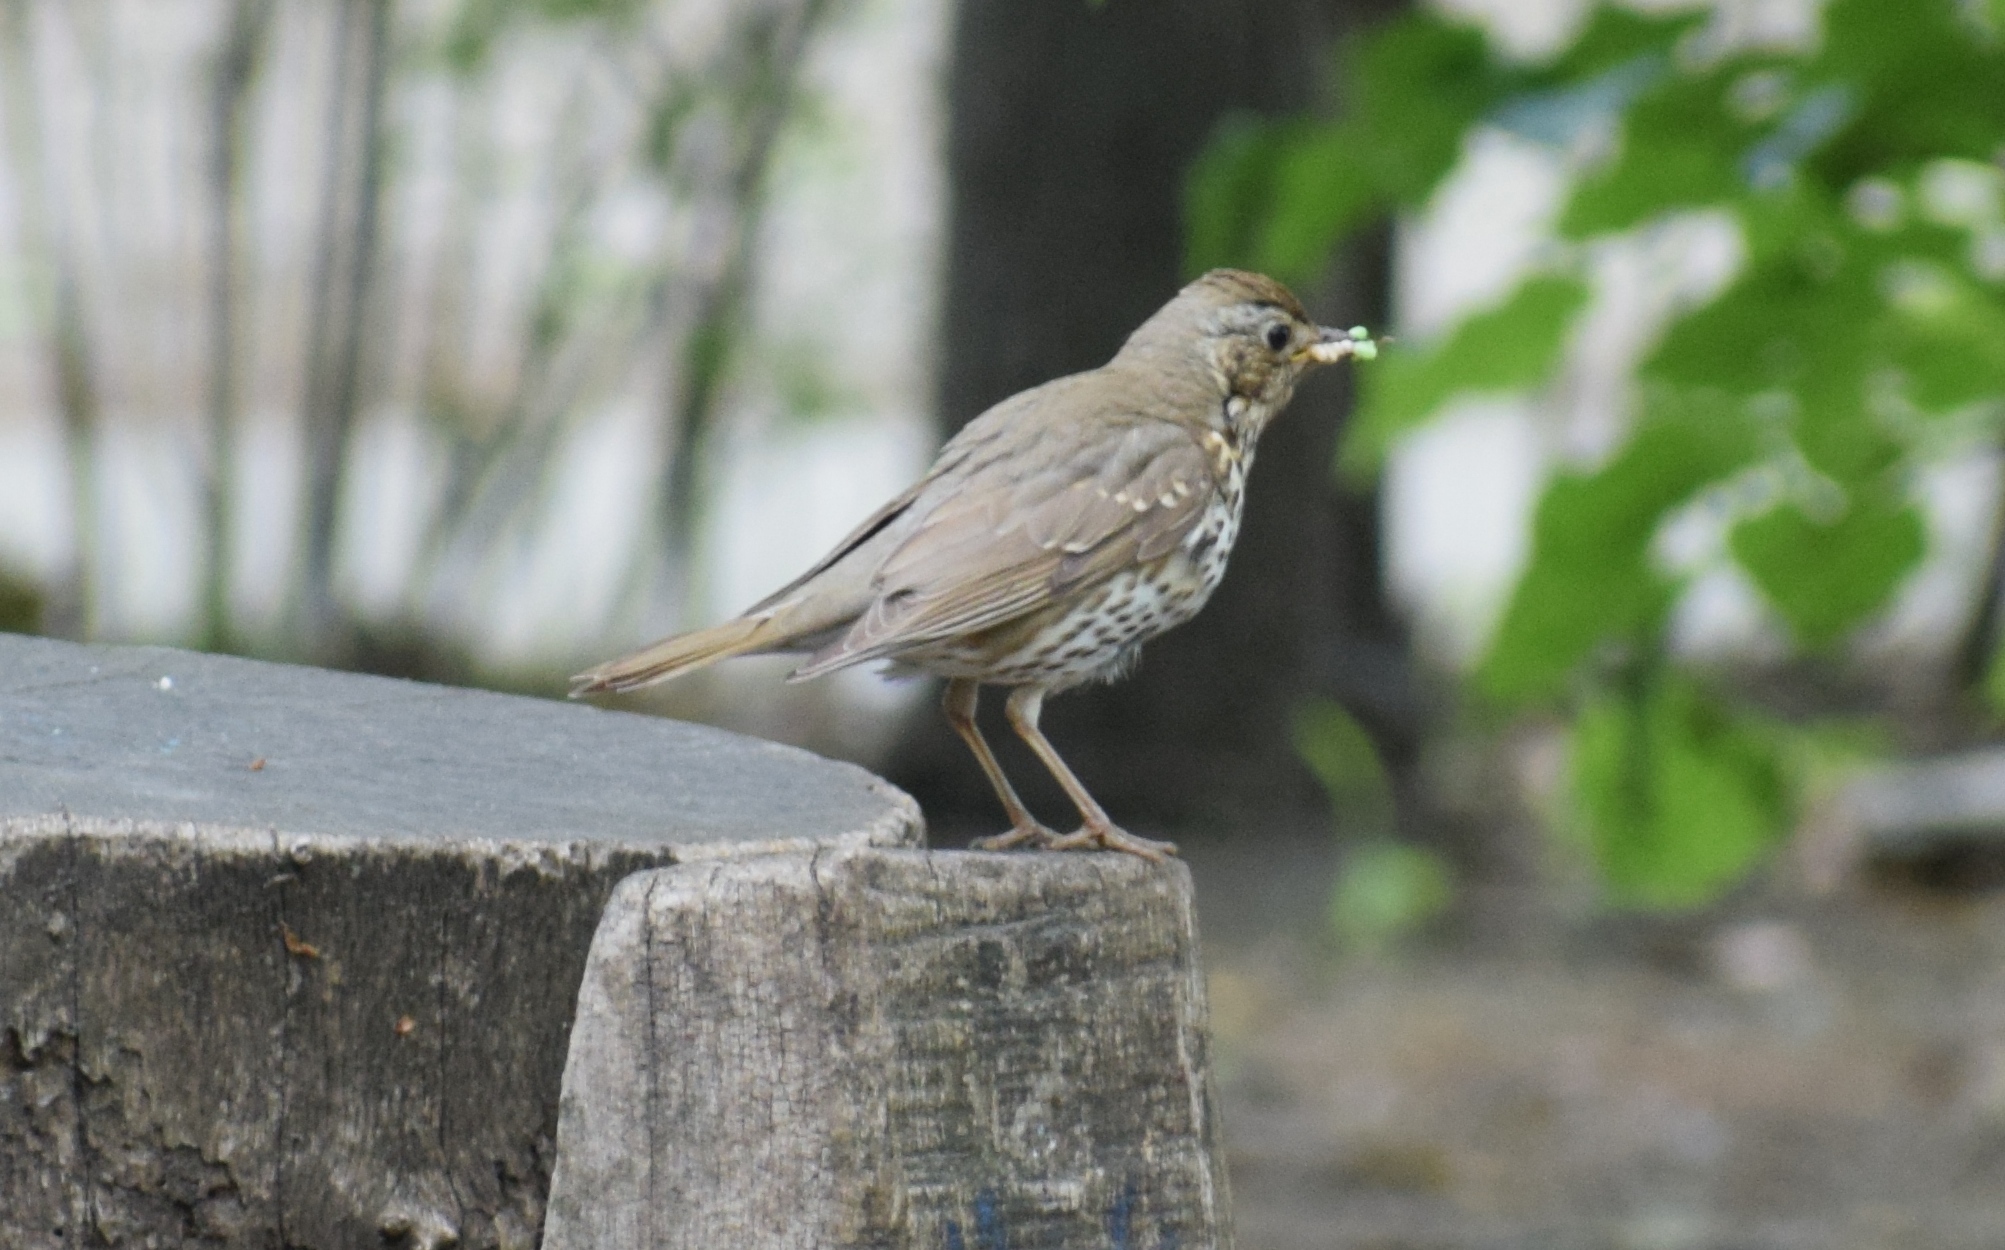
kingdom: Animalia
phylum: Chordata
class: Aves
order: Passeriformes
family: Turdidae
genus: Turdus
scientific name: Turdus philomelos
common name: Song thrush
